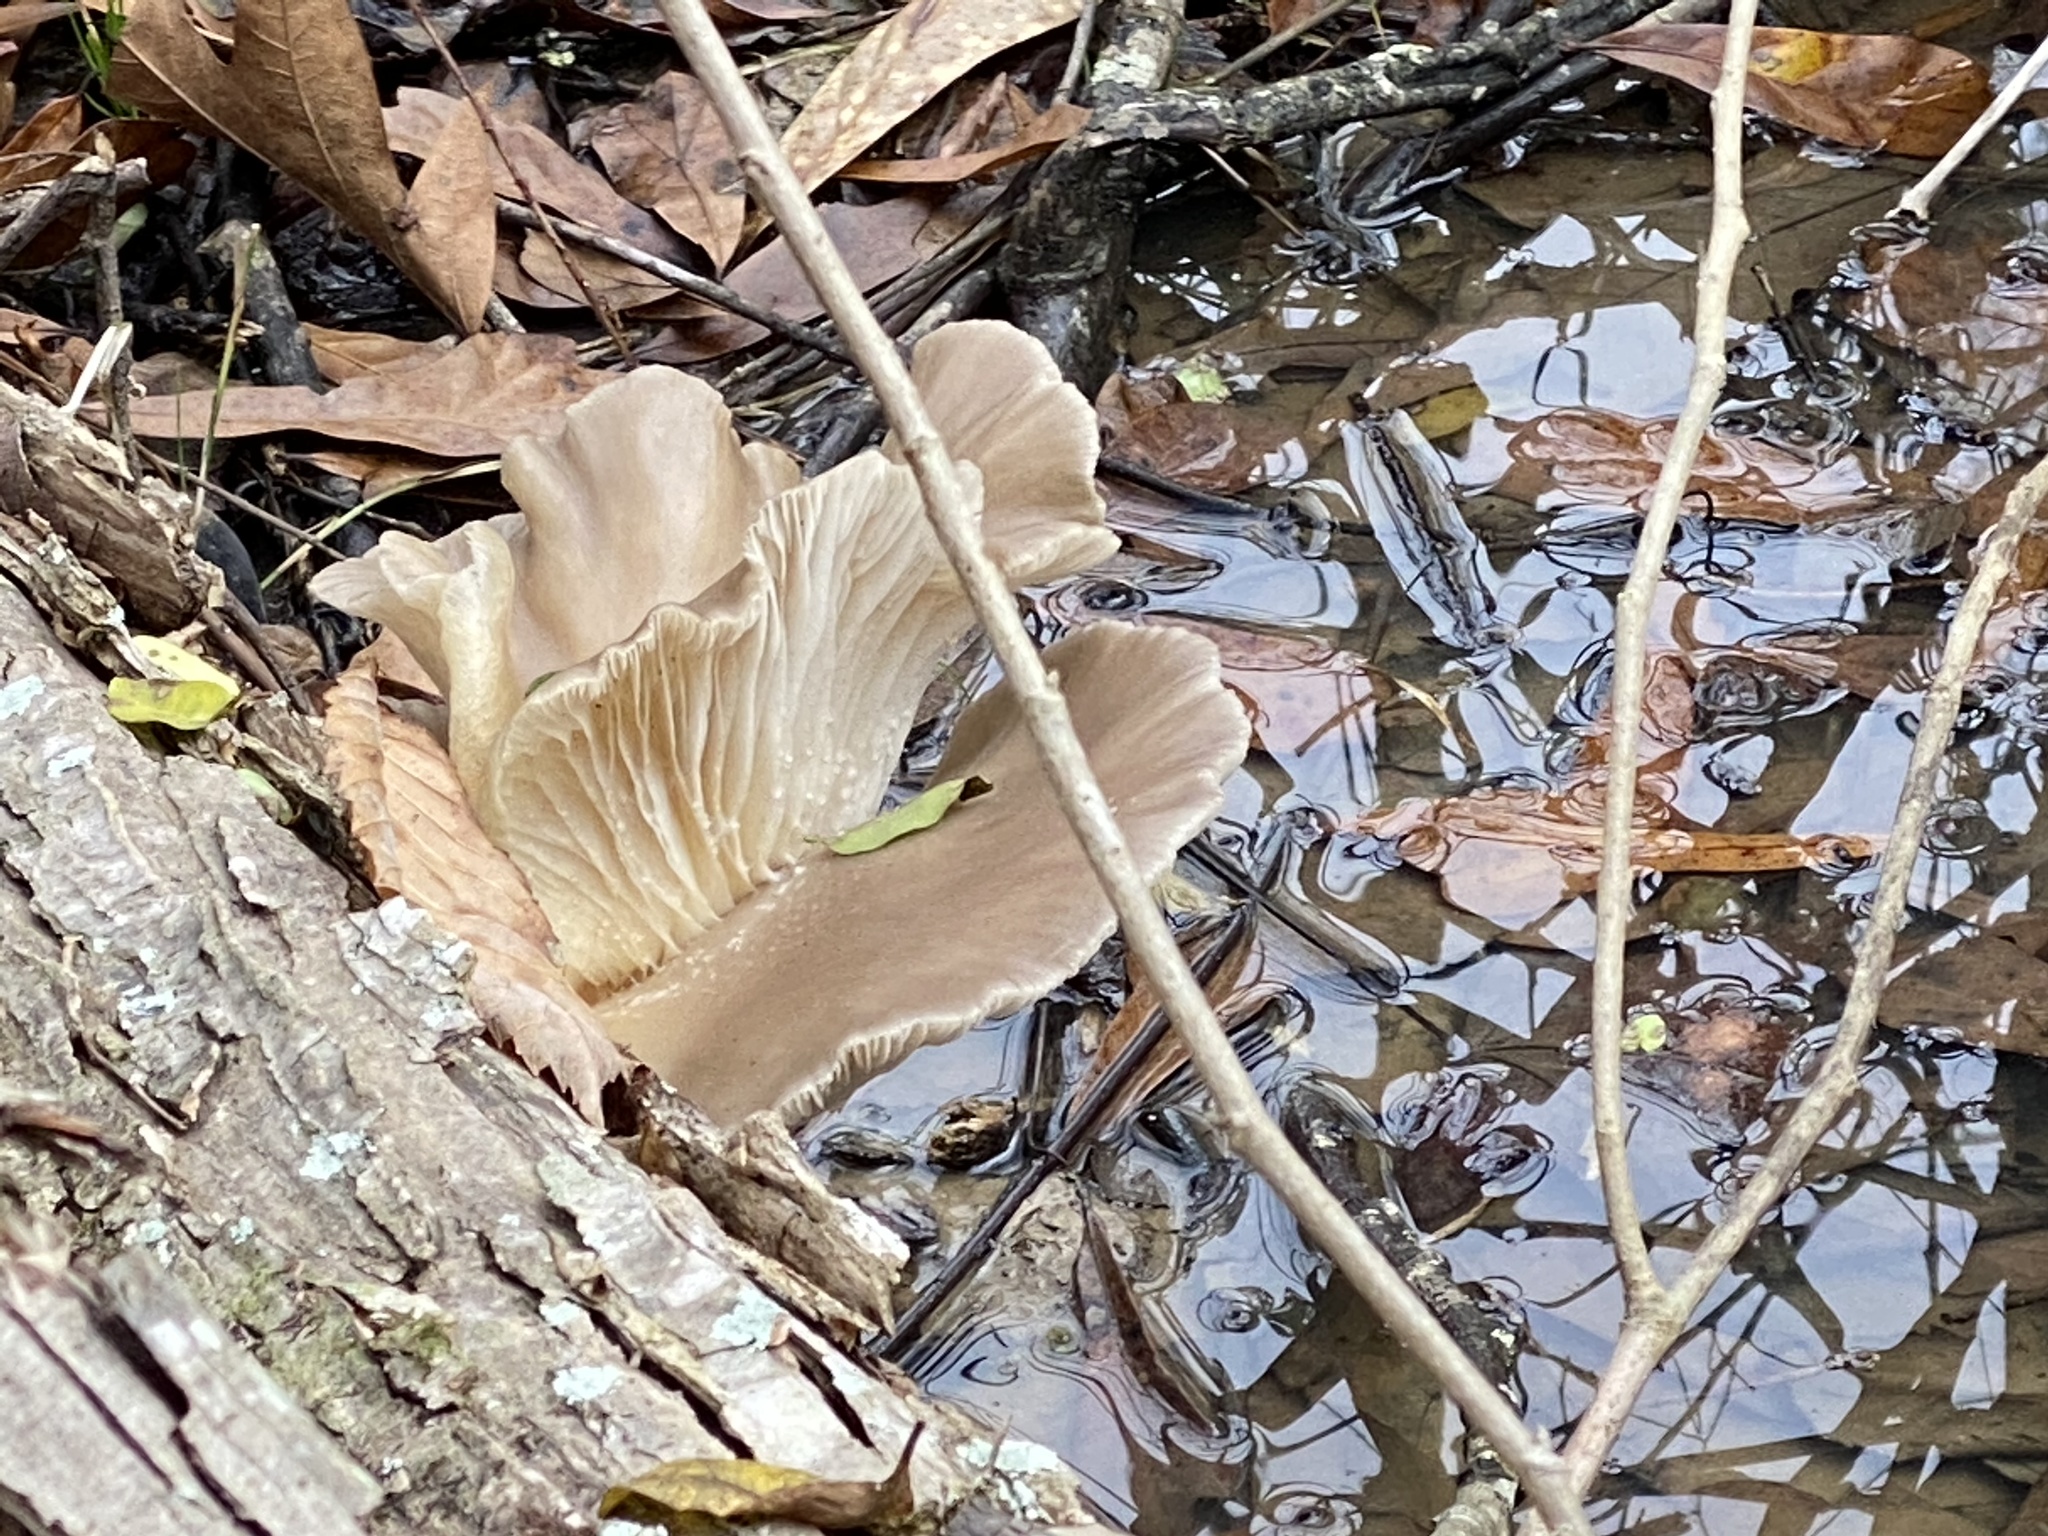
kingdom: Fungi
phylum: Basidiomycota
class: Agaricomycetes
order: Agaricales
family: Pleurotaceae
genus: Pleurotus
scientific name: Pleurotus ostreatus
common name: Oyster mushroom
